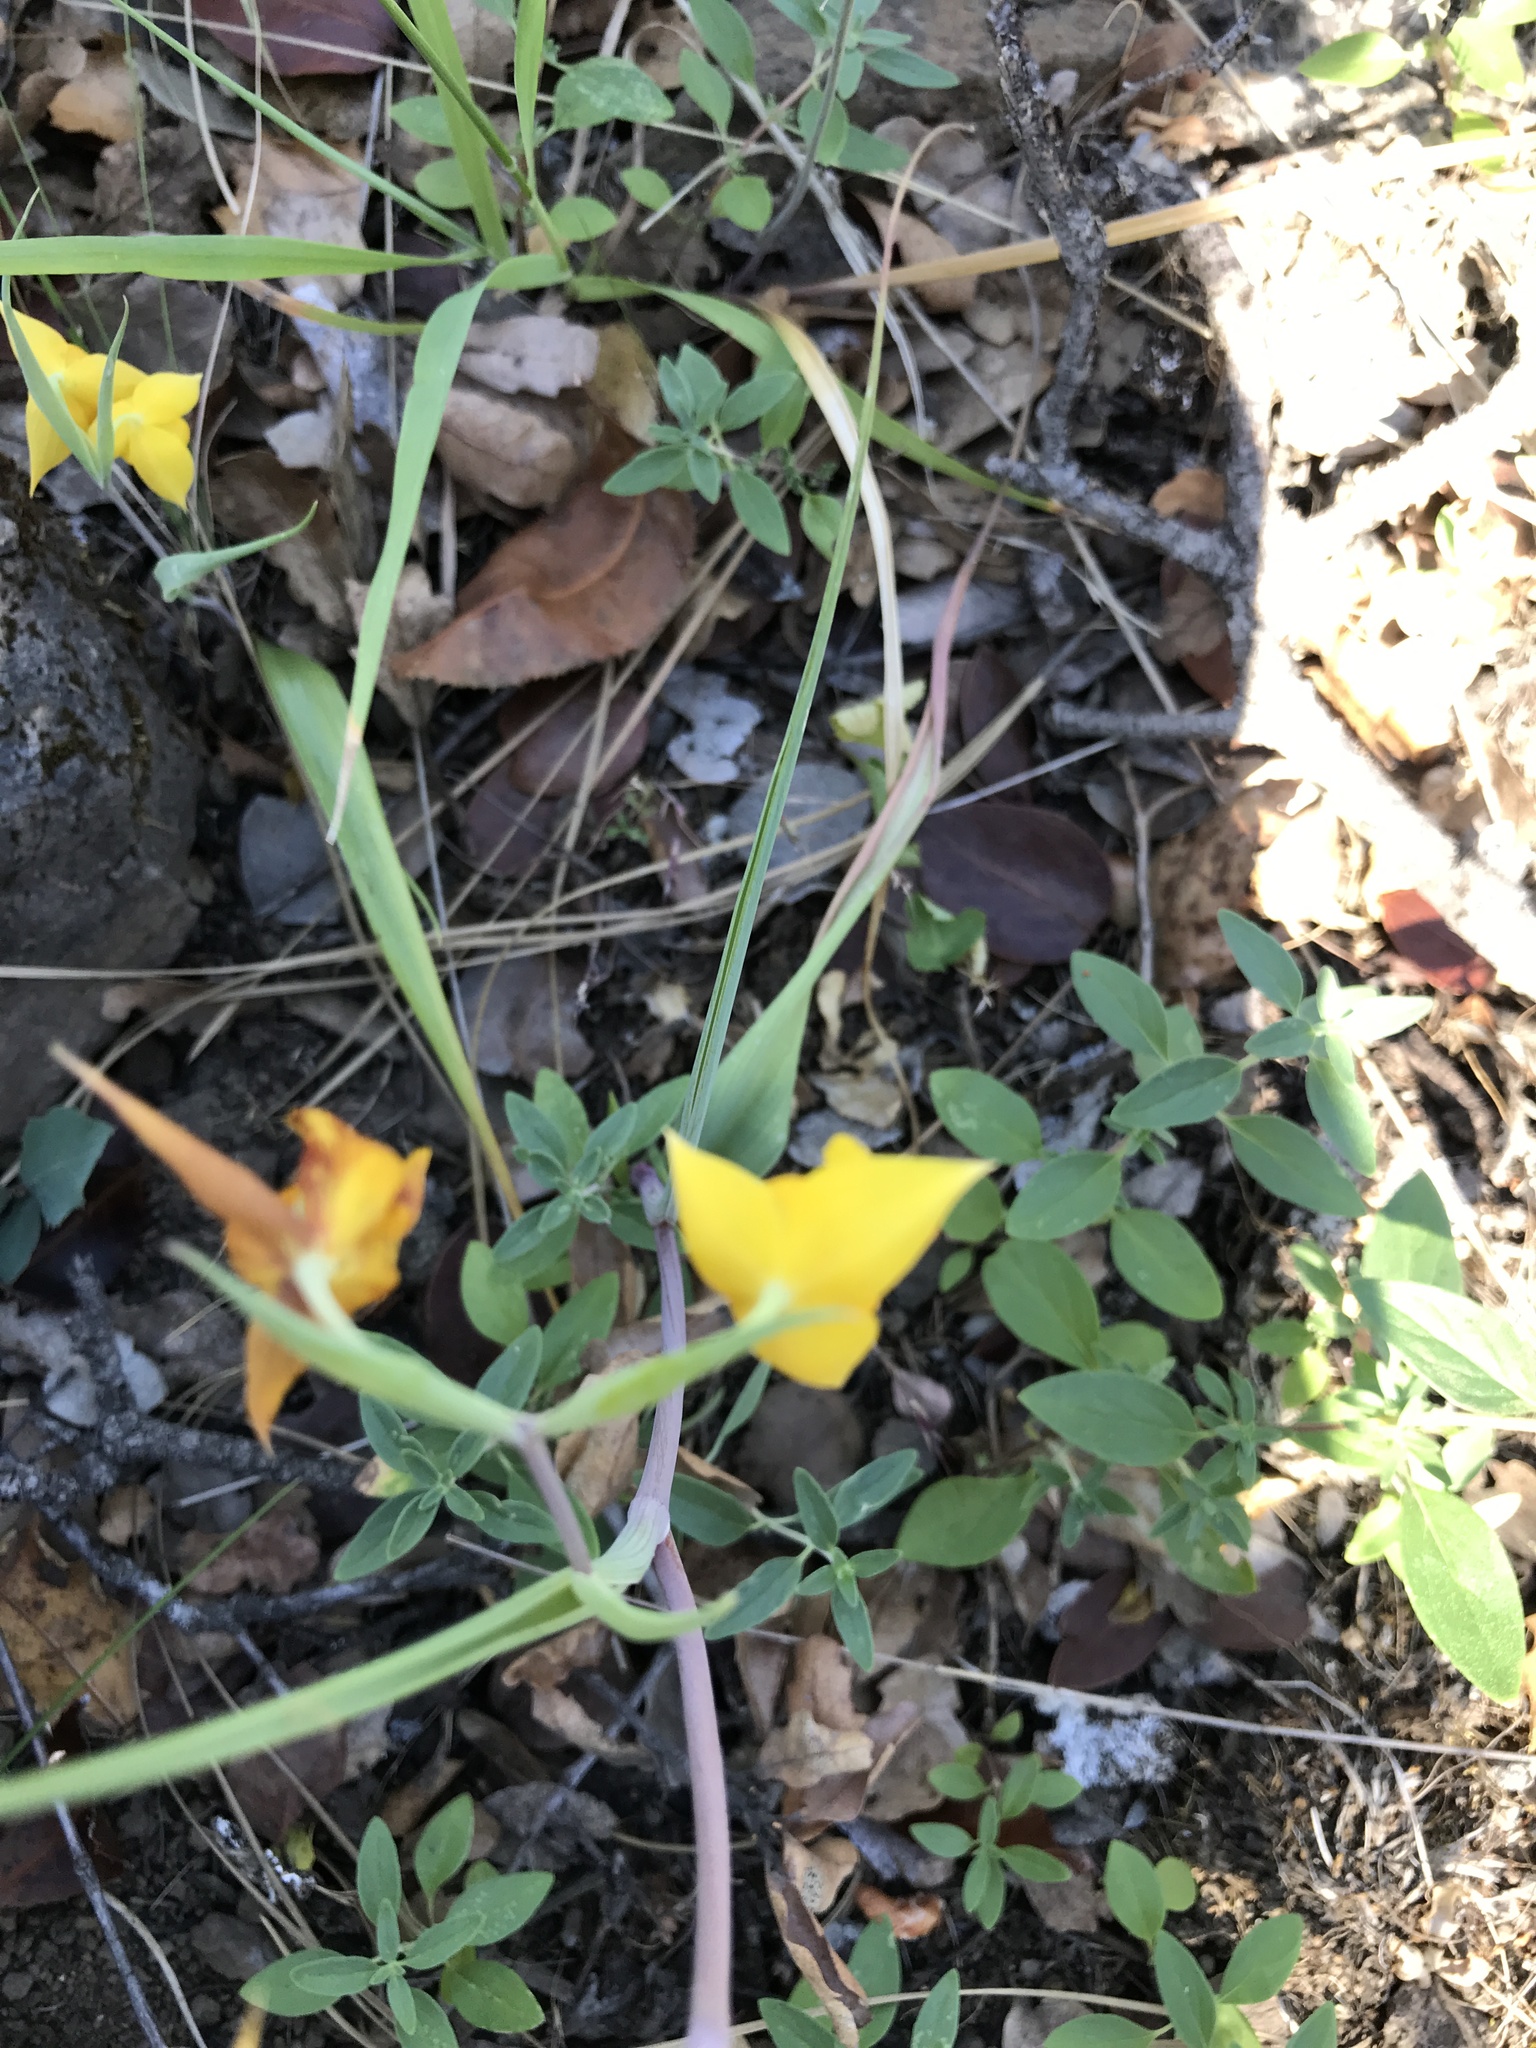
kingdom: Plantae
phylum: Tracheophyta
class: Liliopsida
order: Liliales
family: Liliaceae
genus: Calochortus
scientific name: Calochortus amabilis
